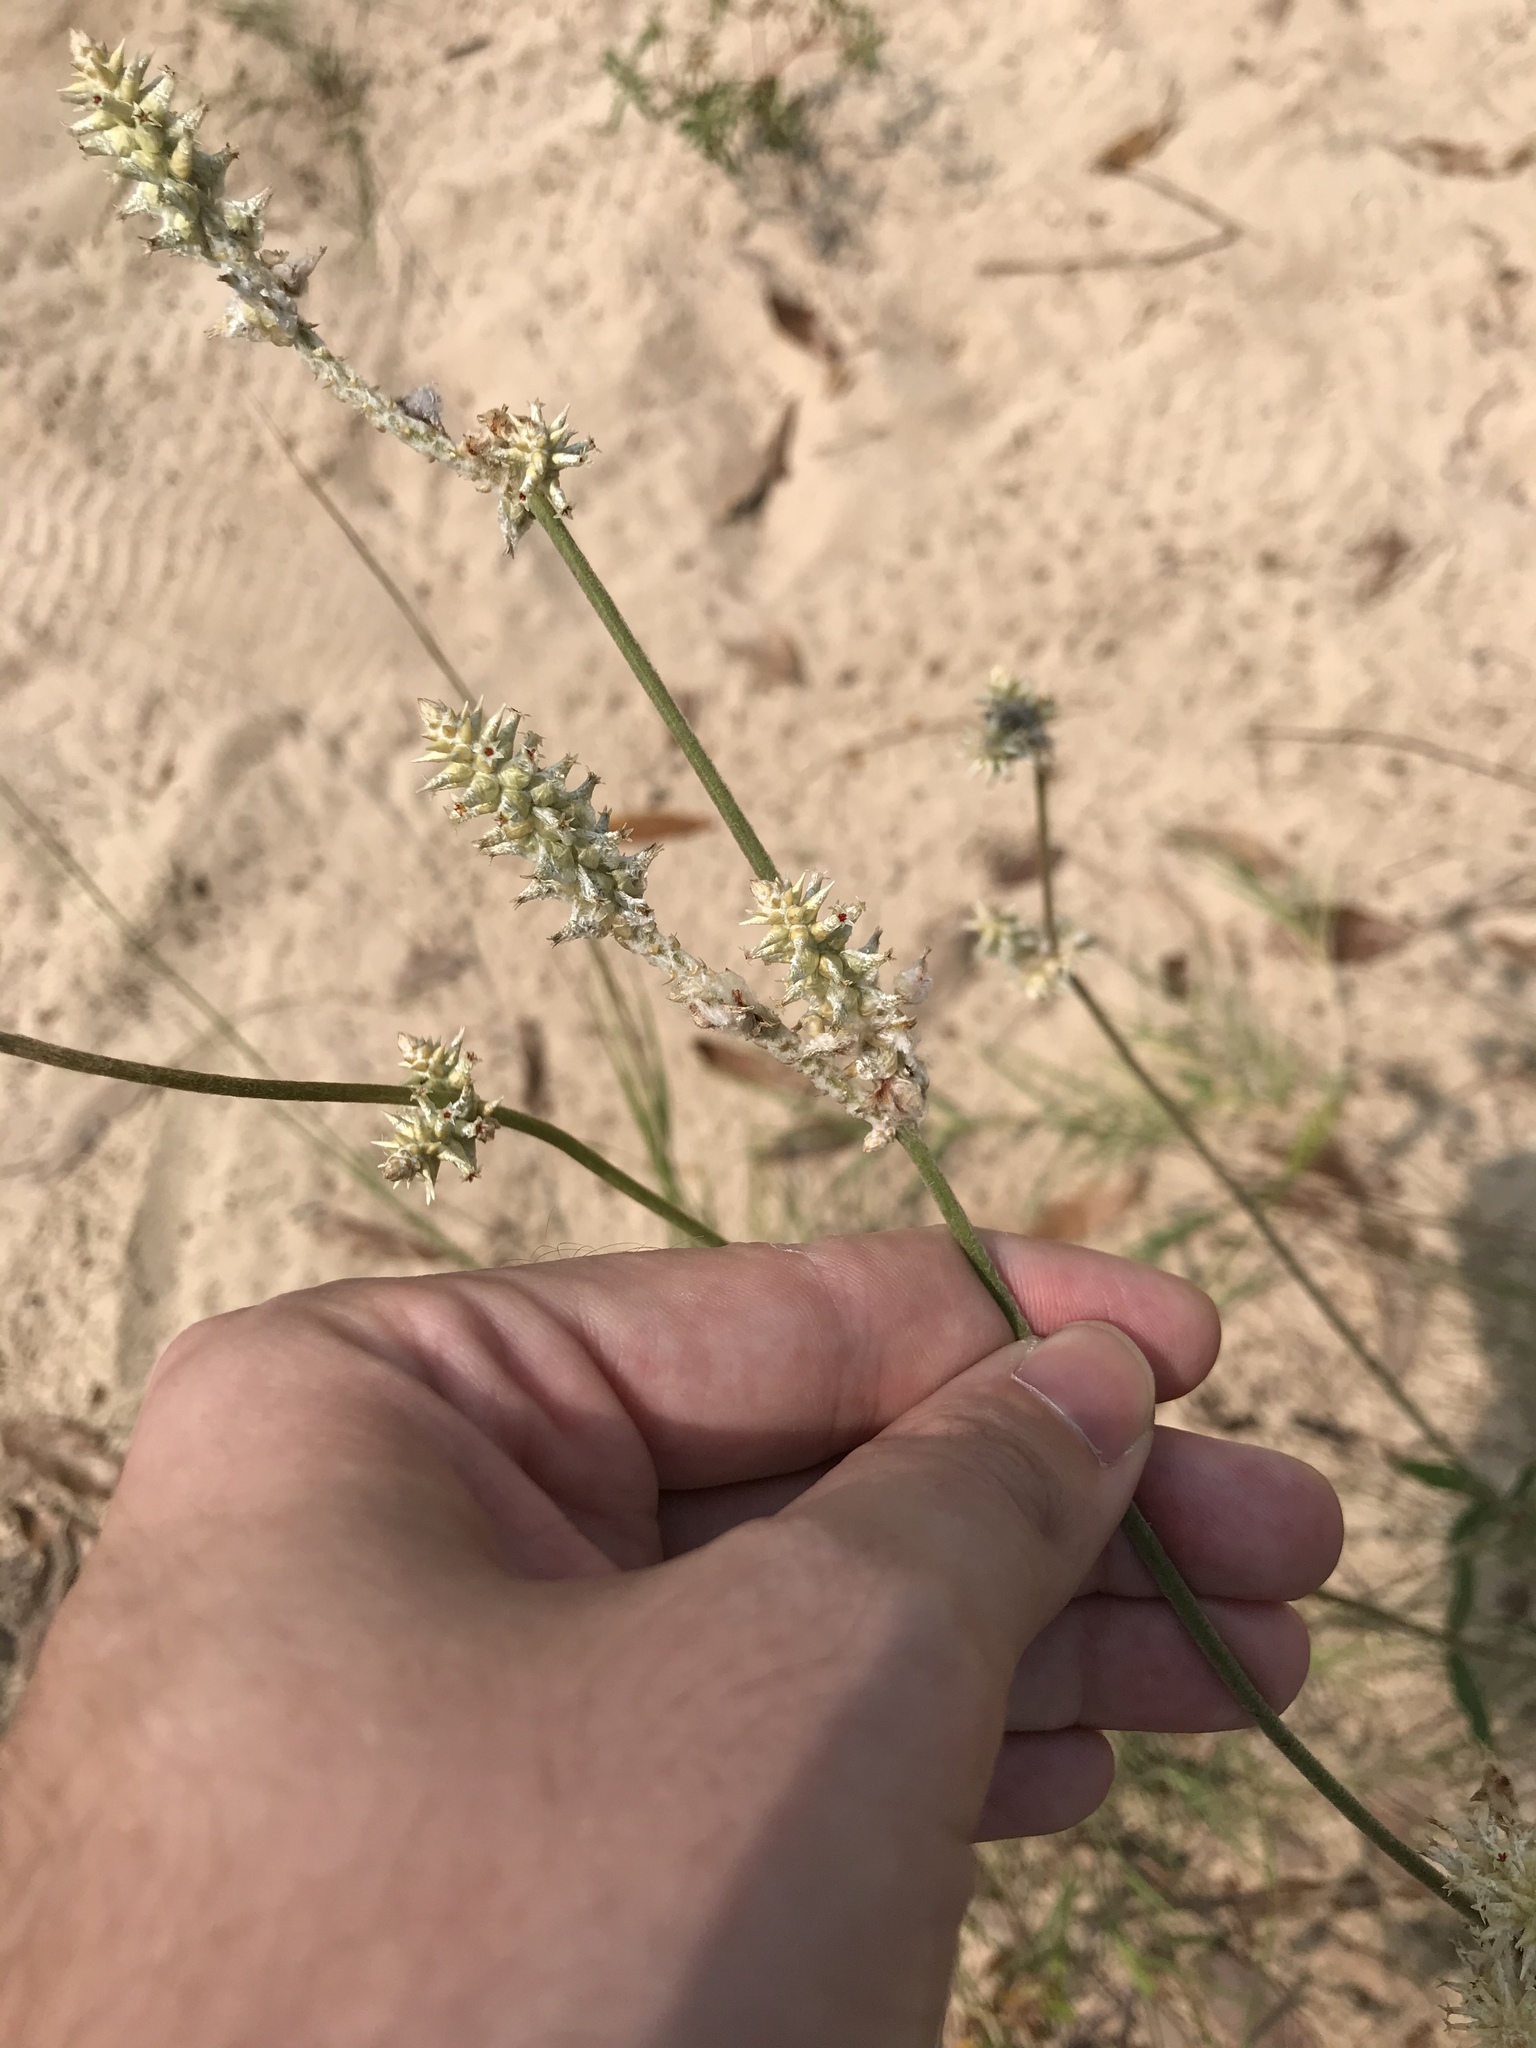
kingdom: Plantae
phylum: Tracheophyta
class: Magnoliopsida
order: Caryophyllales
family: Amaranthaceae
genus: Froelichia
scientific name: Froelichia floridana
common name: Florida snake-cotton
